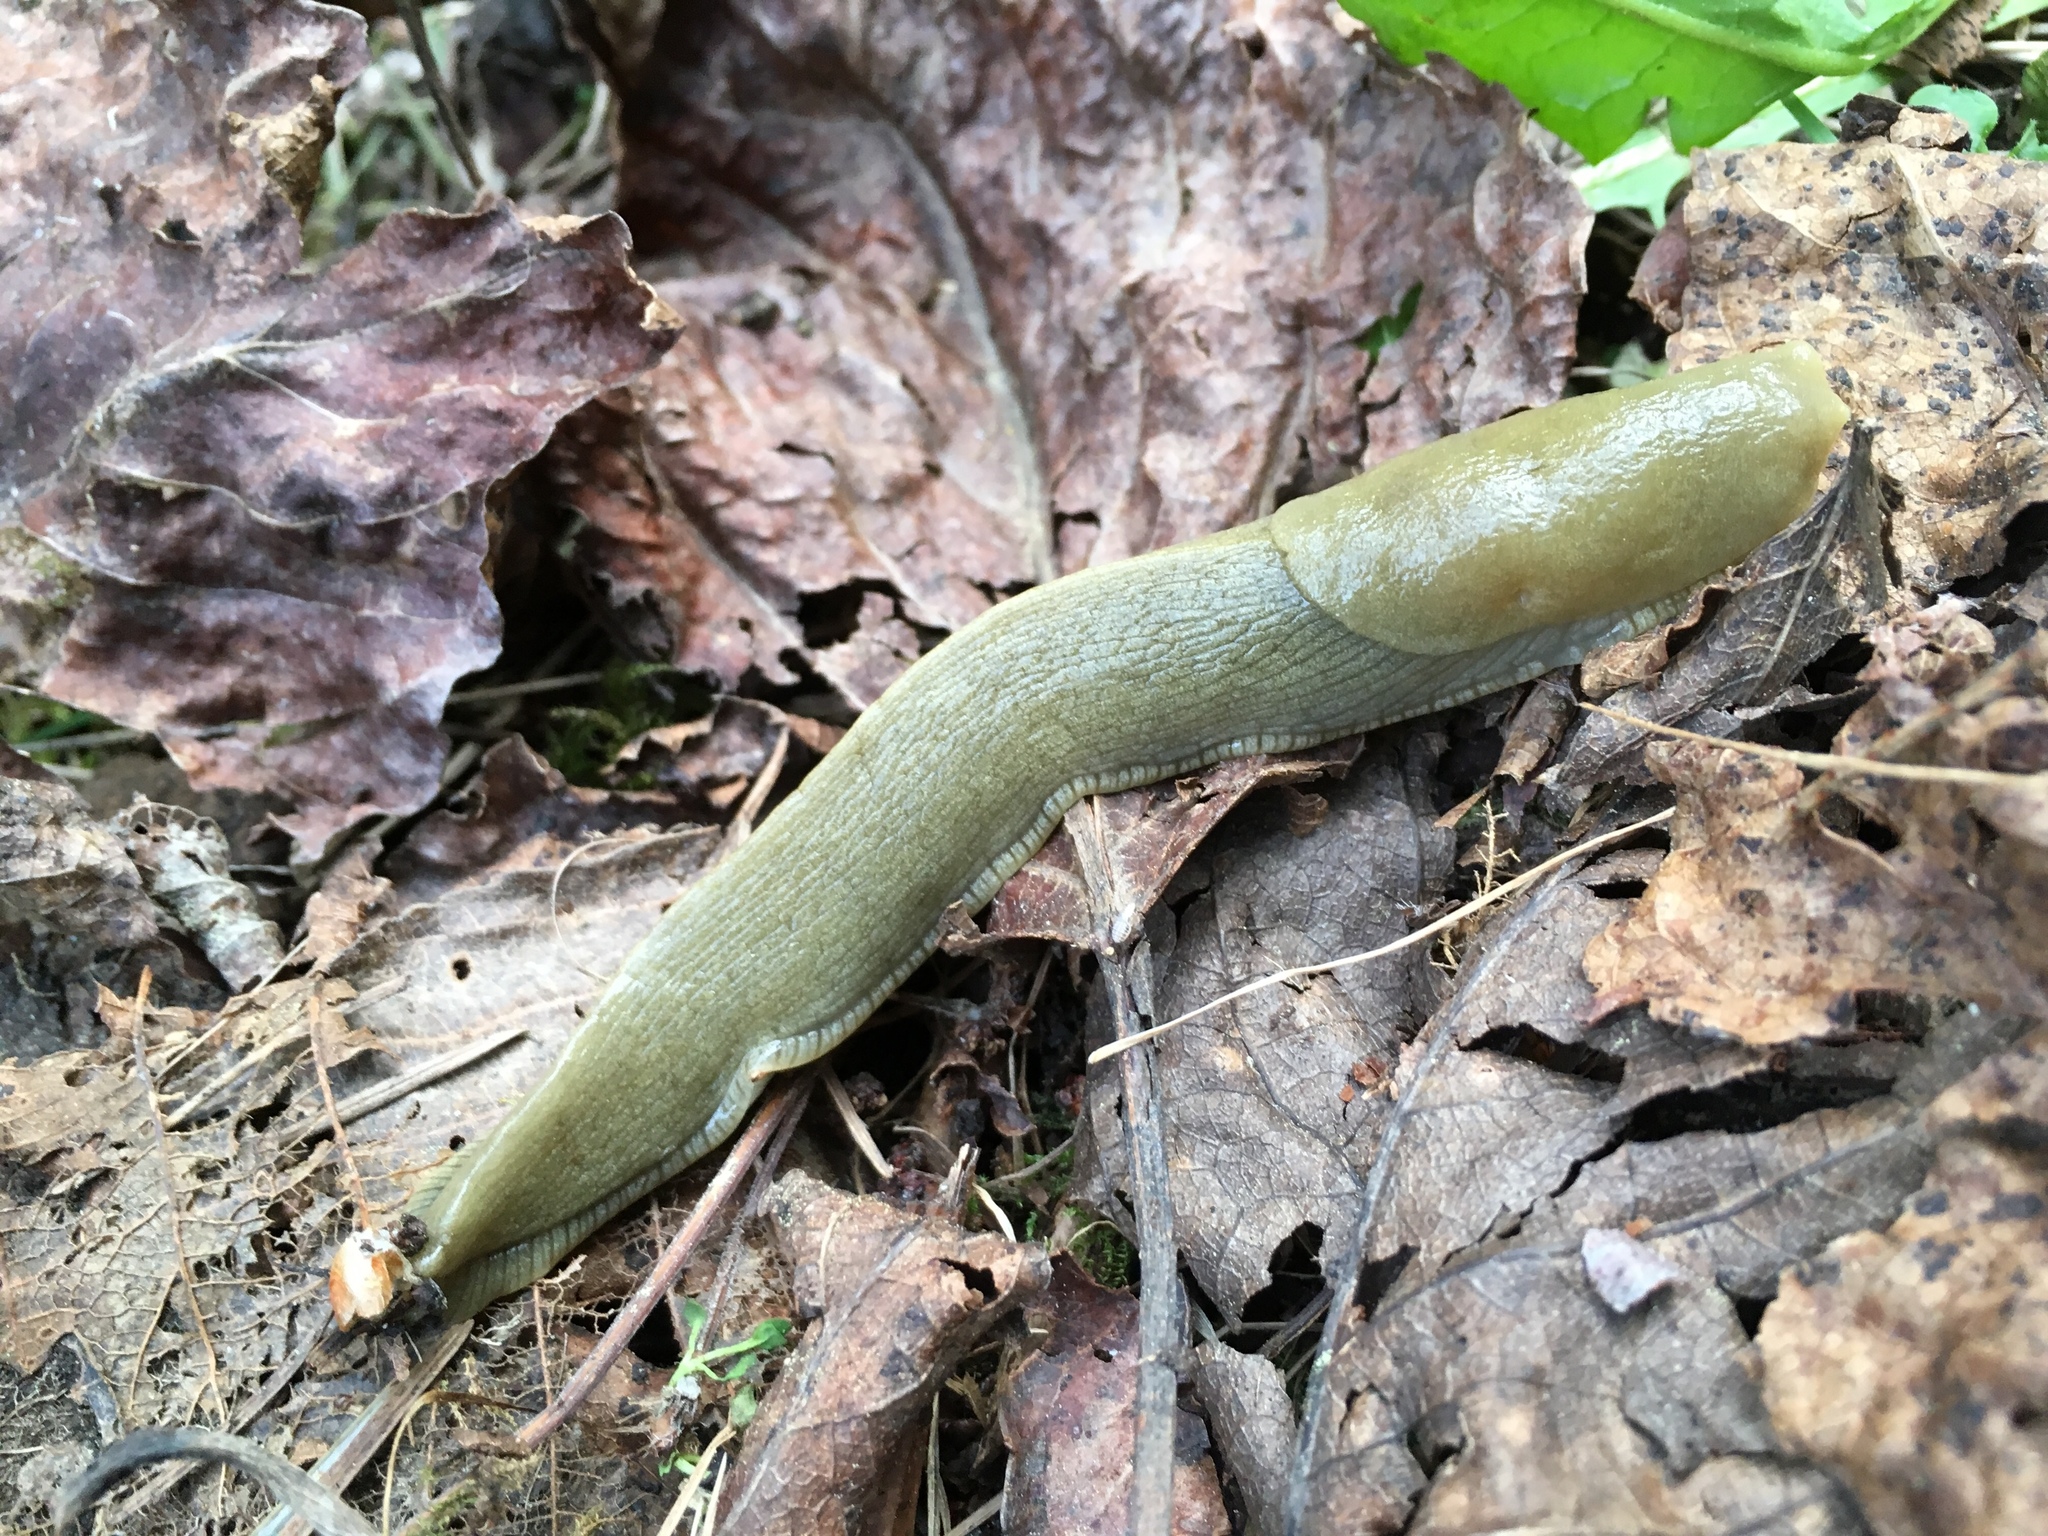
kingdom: Animalia
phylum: Mollusca
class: Gastropoda
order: Stylommatophora
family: Ariolimacidae
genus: Ariolimax
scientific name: Ariolimax columbianus
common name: Pacific banana slug
